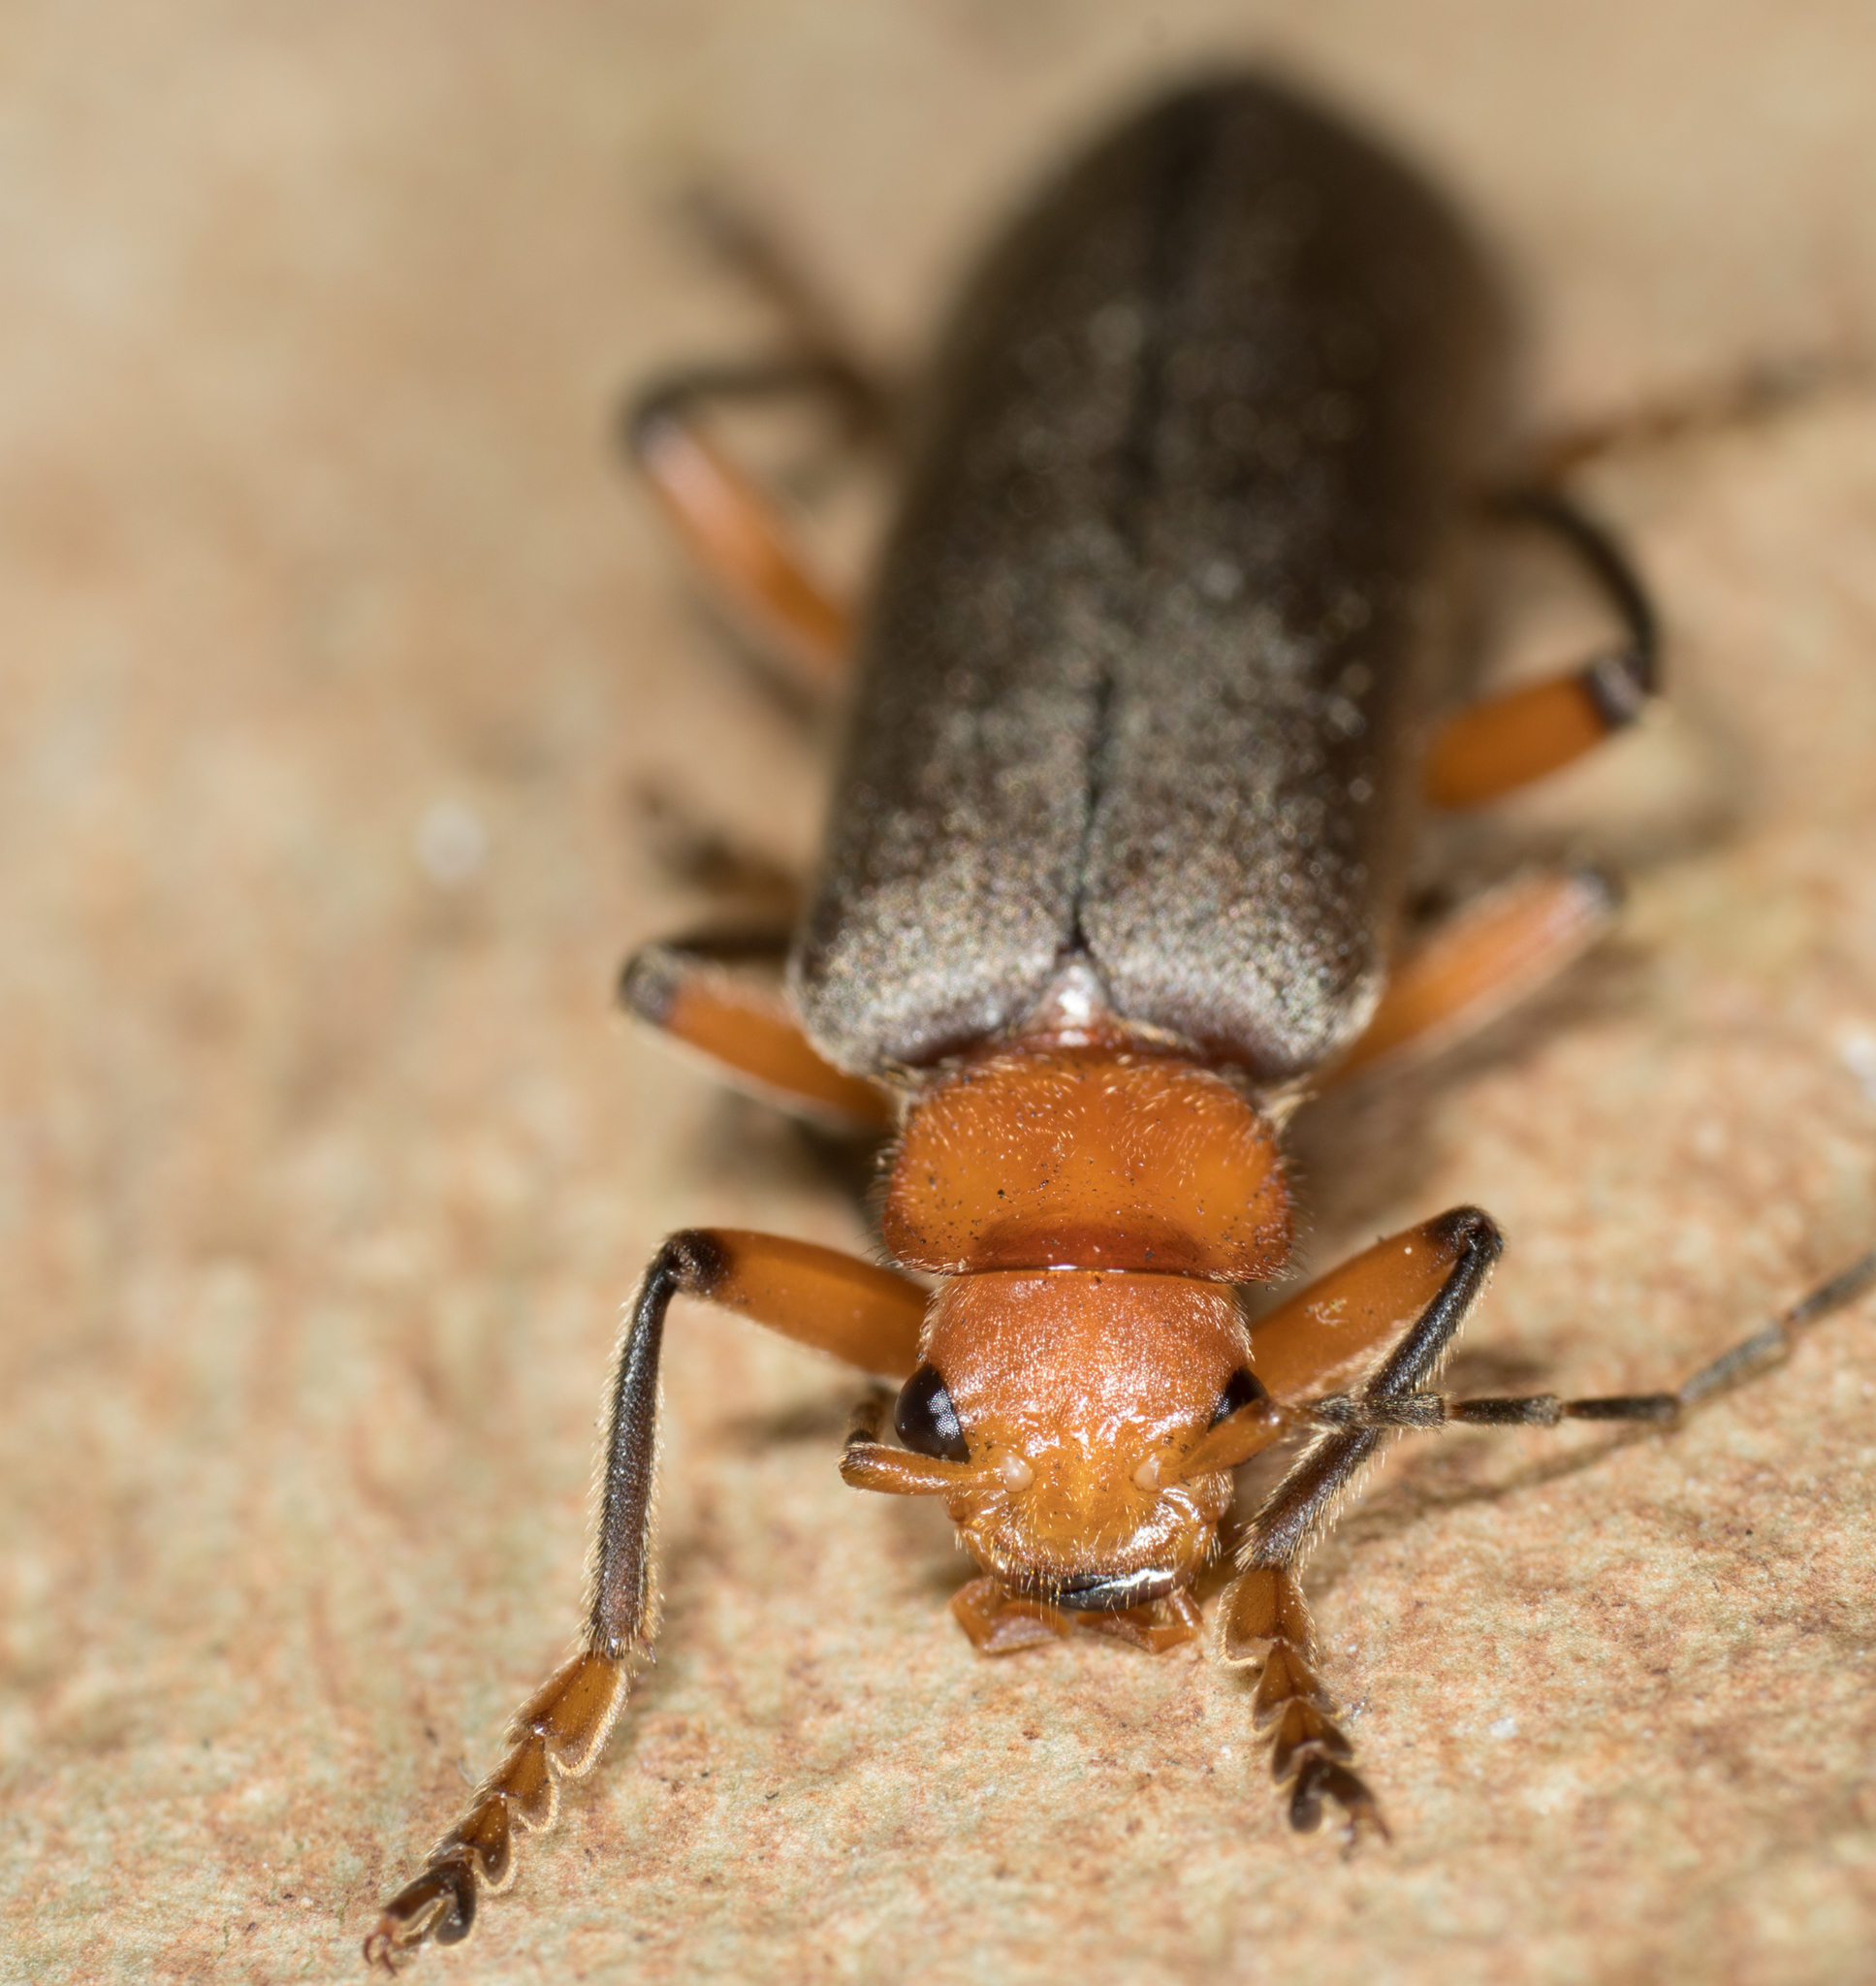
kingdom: Animalia
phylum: Arthropoda
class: Insecta
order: Coleoptera
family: Cantharidae
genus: Pacificanthia
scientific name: Pacificanthia consors
